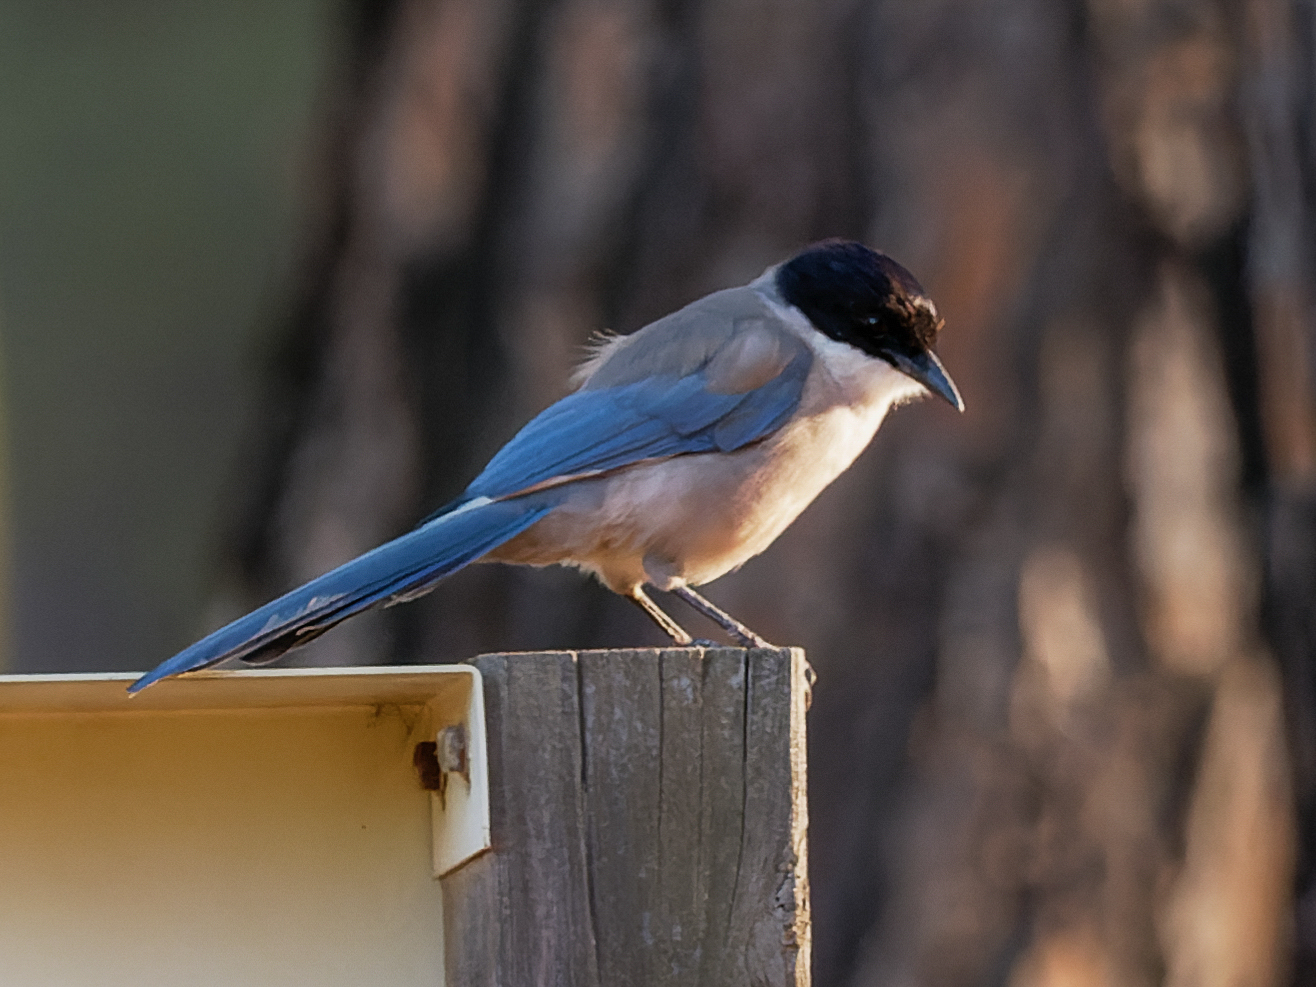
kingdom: Animalia
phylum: Chordata
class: Aves
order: Passeriformes
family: Corvidae
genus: Cyanopica
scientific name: Cyanopica cooki
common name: Iberian magpie
